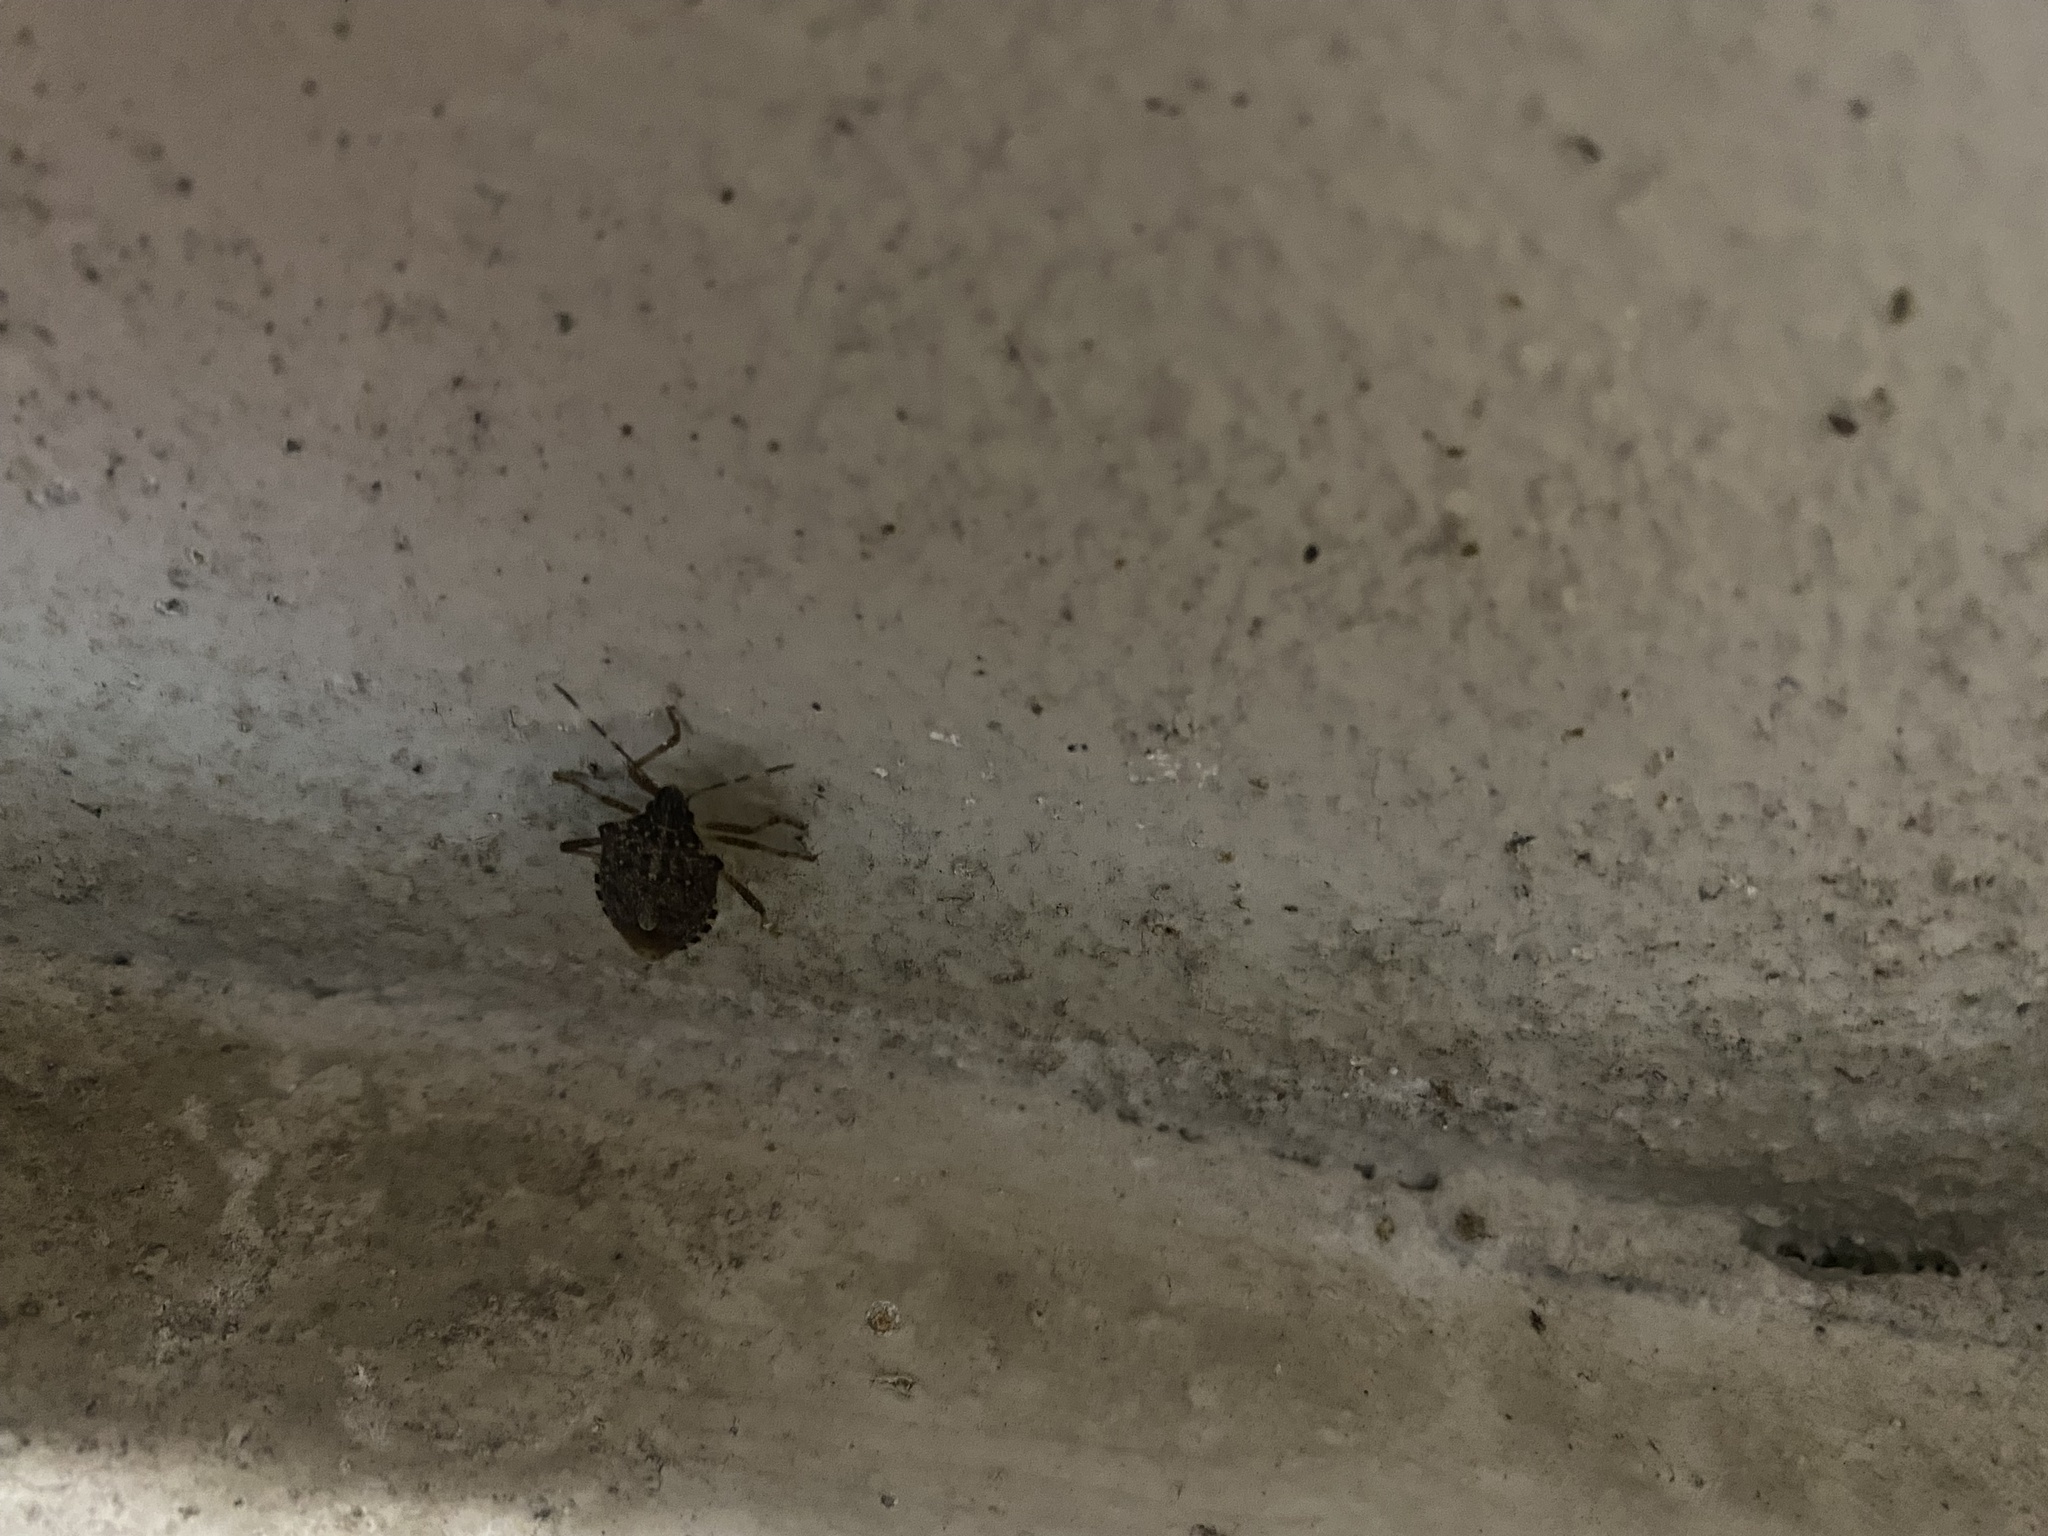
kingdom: Animalia
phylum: Arthropoda
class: Insecta
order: Hemiptera
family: Pentatomidae
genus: Halyomorpha
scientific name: Halyomorpha halys
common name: Brown marmorated stink bug
